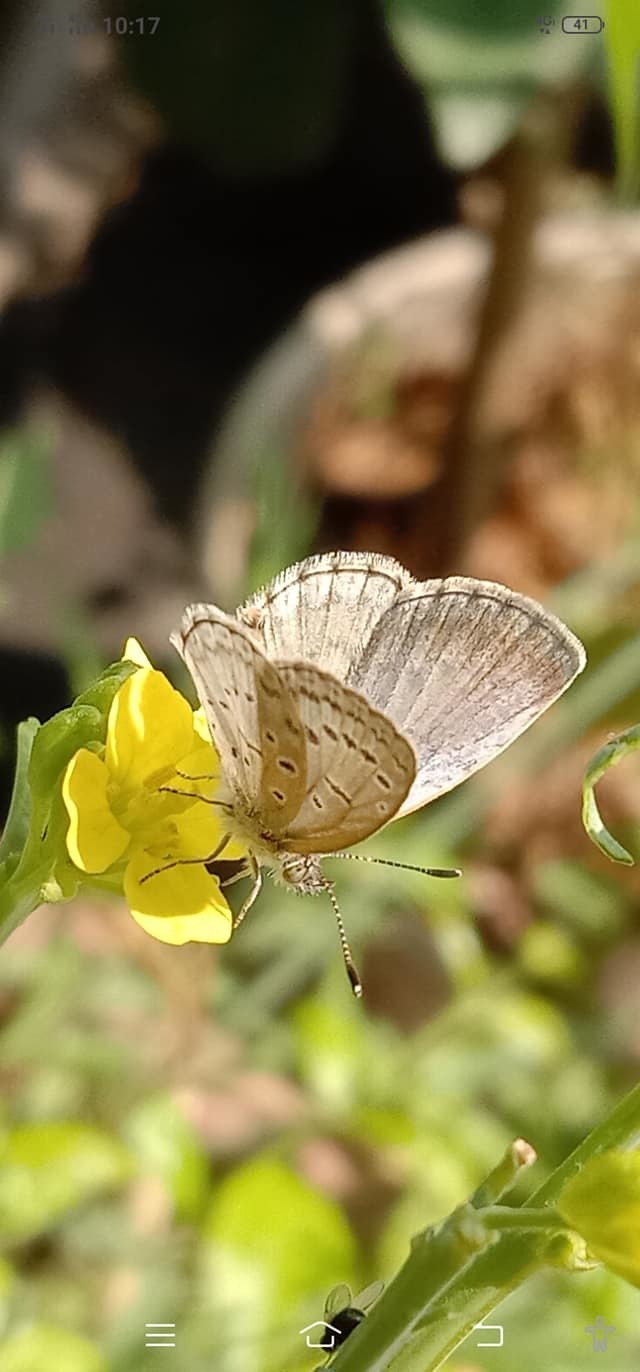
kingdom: Animalia
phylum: Arthropoda
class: Insecta
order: Lepidoptera
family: Lycaenidae
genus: Pseudozizeeria
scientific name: Pseudozizeeria maha
